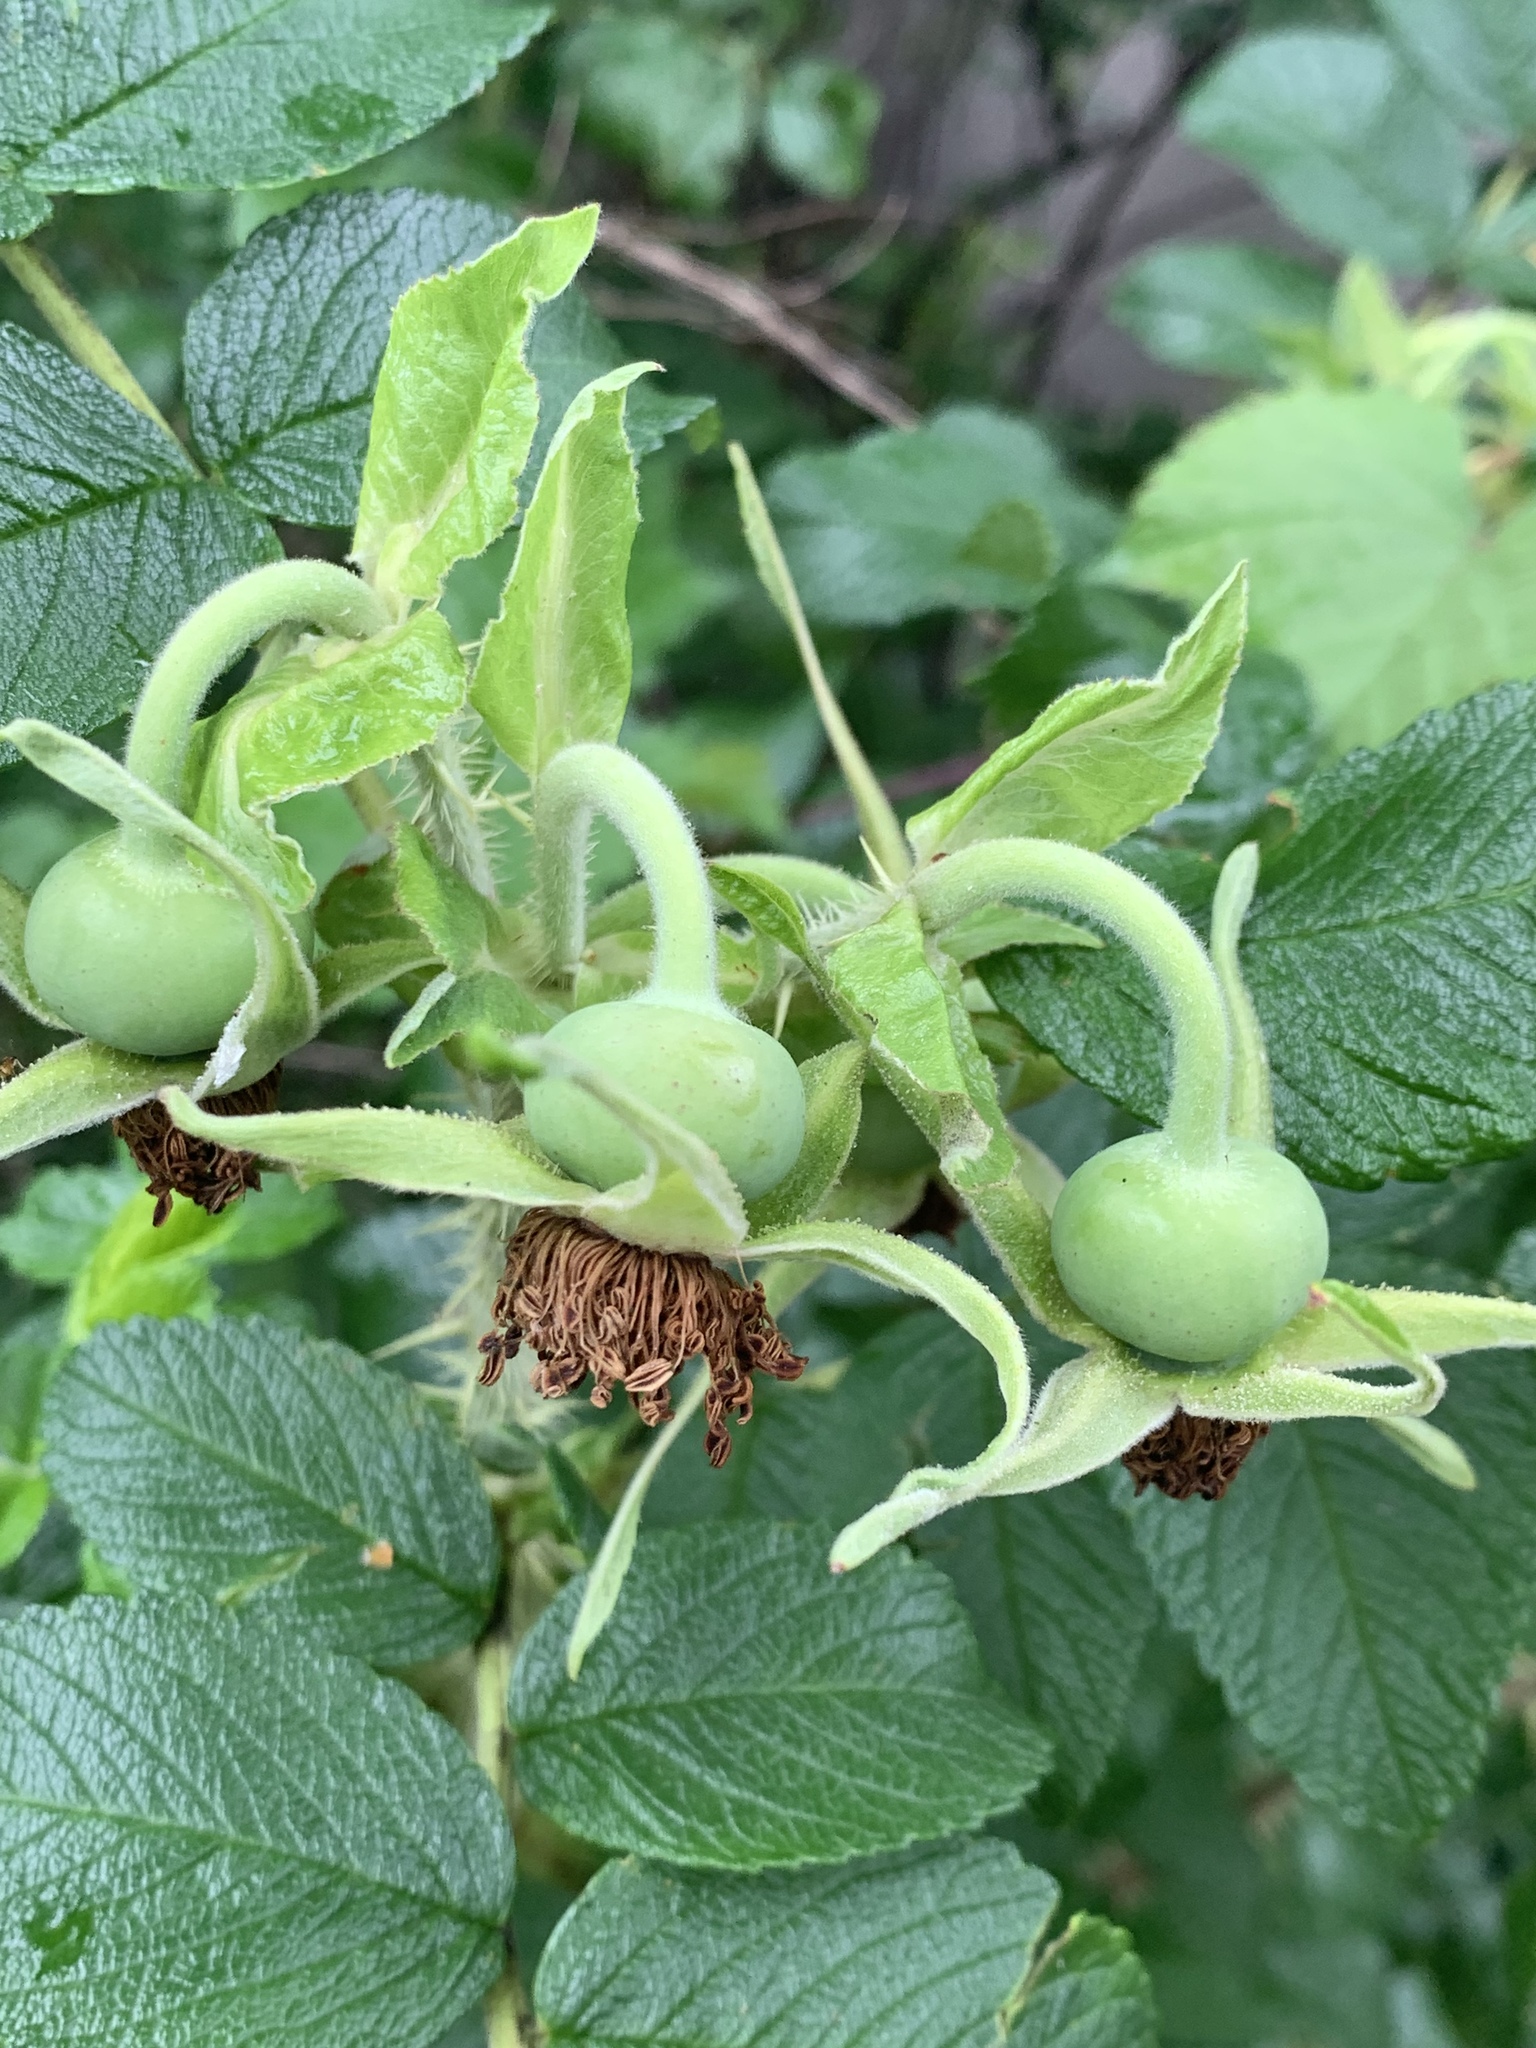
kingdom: Plantae
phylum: Tracheophyta
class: Magnoliopsida
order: Rosales
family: Rosaceae
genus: Rosa
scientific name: Rosa rugosa
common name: Japanese rose
